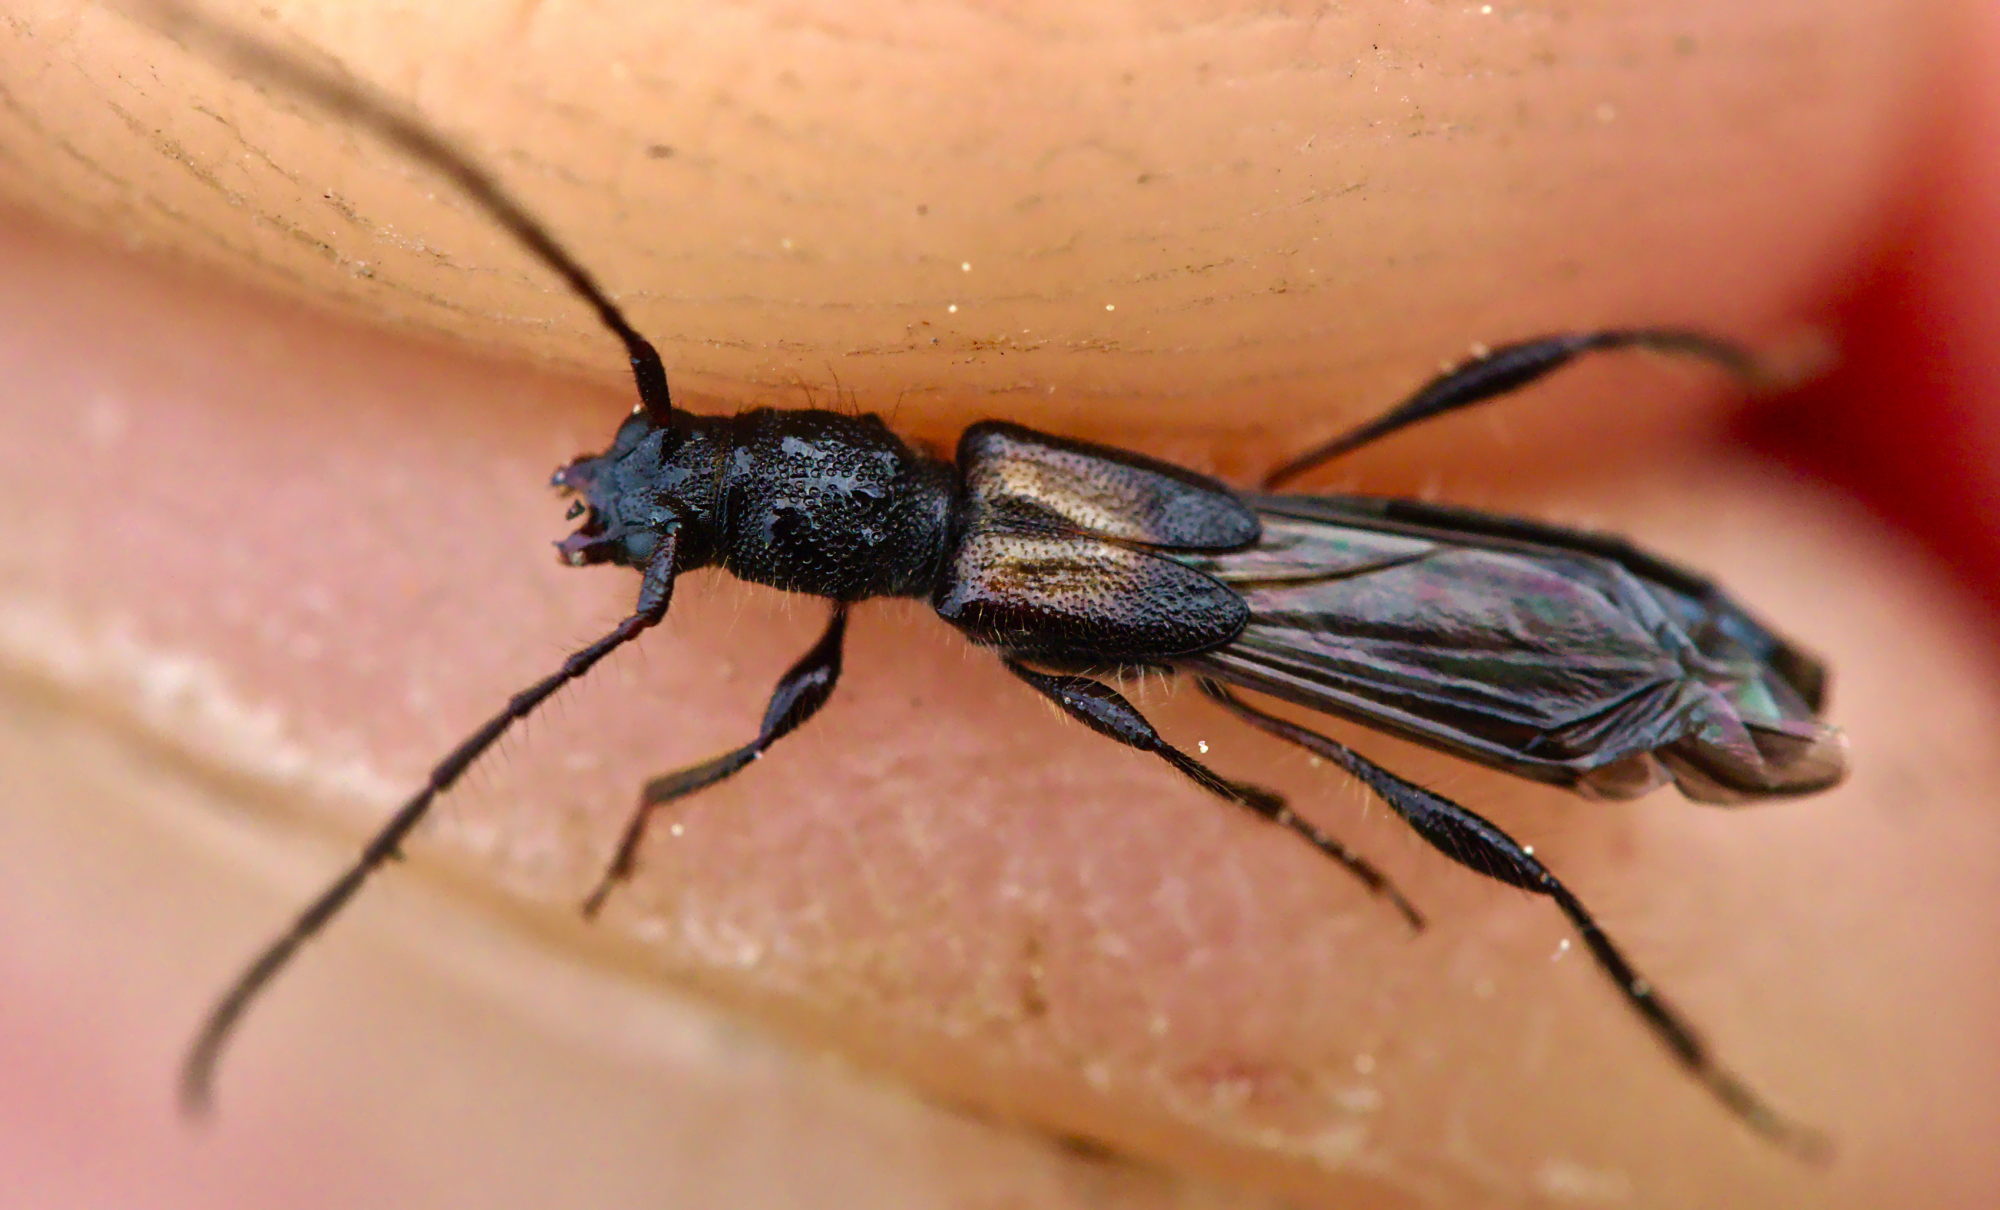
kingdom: Animalia
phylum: Arthropoda
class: Insecta
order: Coleoptera
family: Cerambycidae
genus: Molorchus
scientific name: Molorchus umbellatarum
